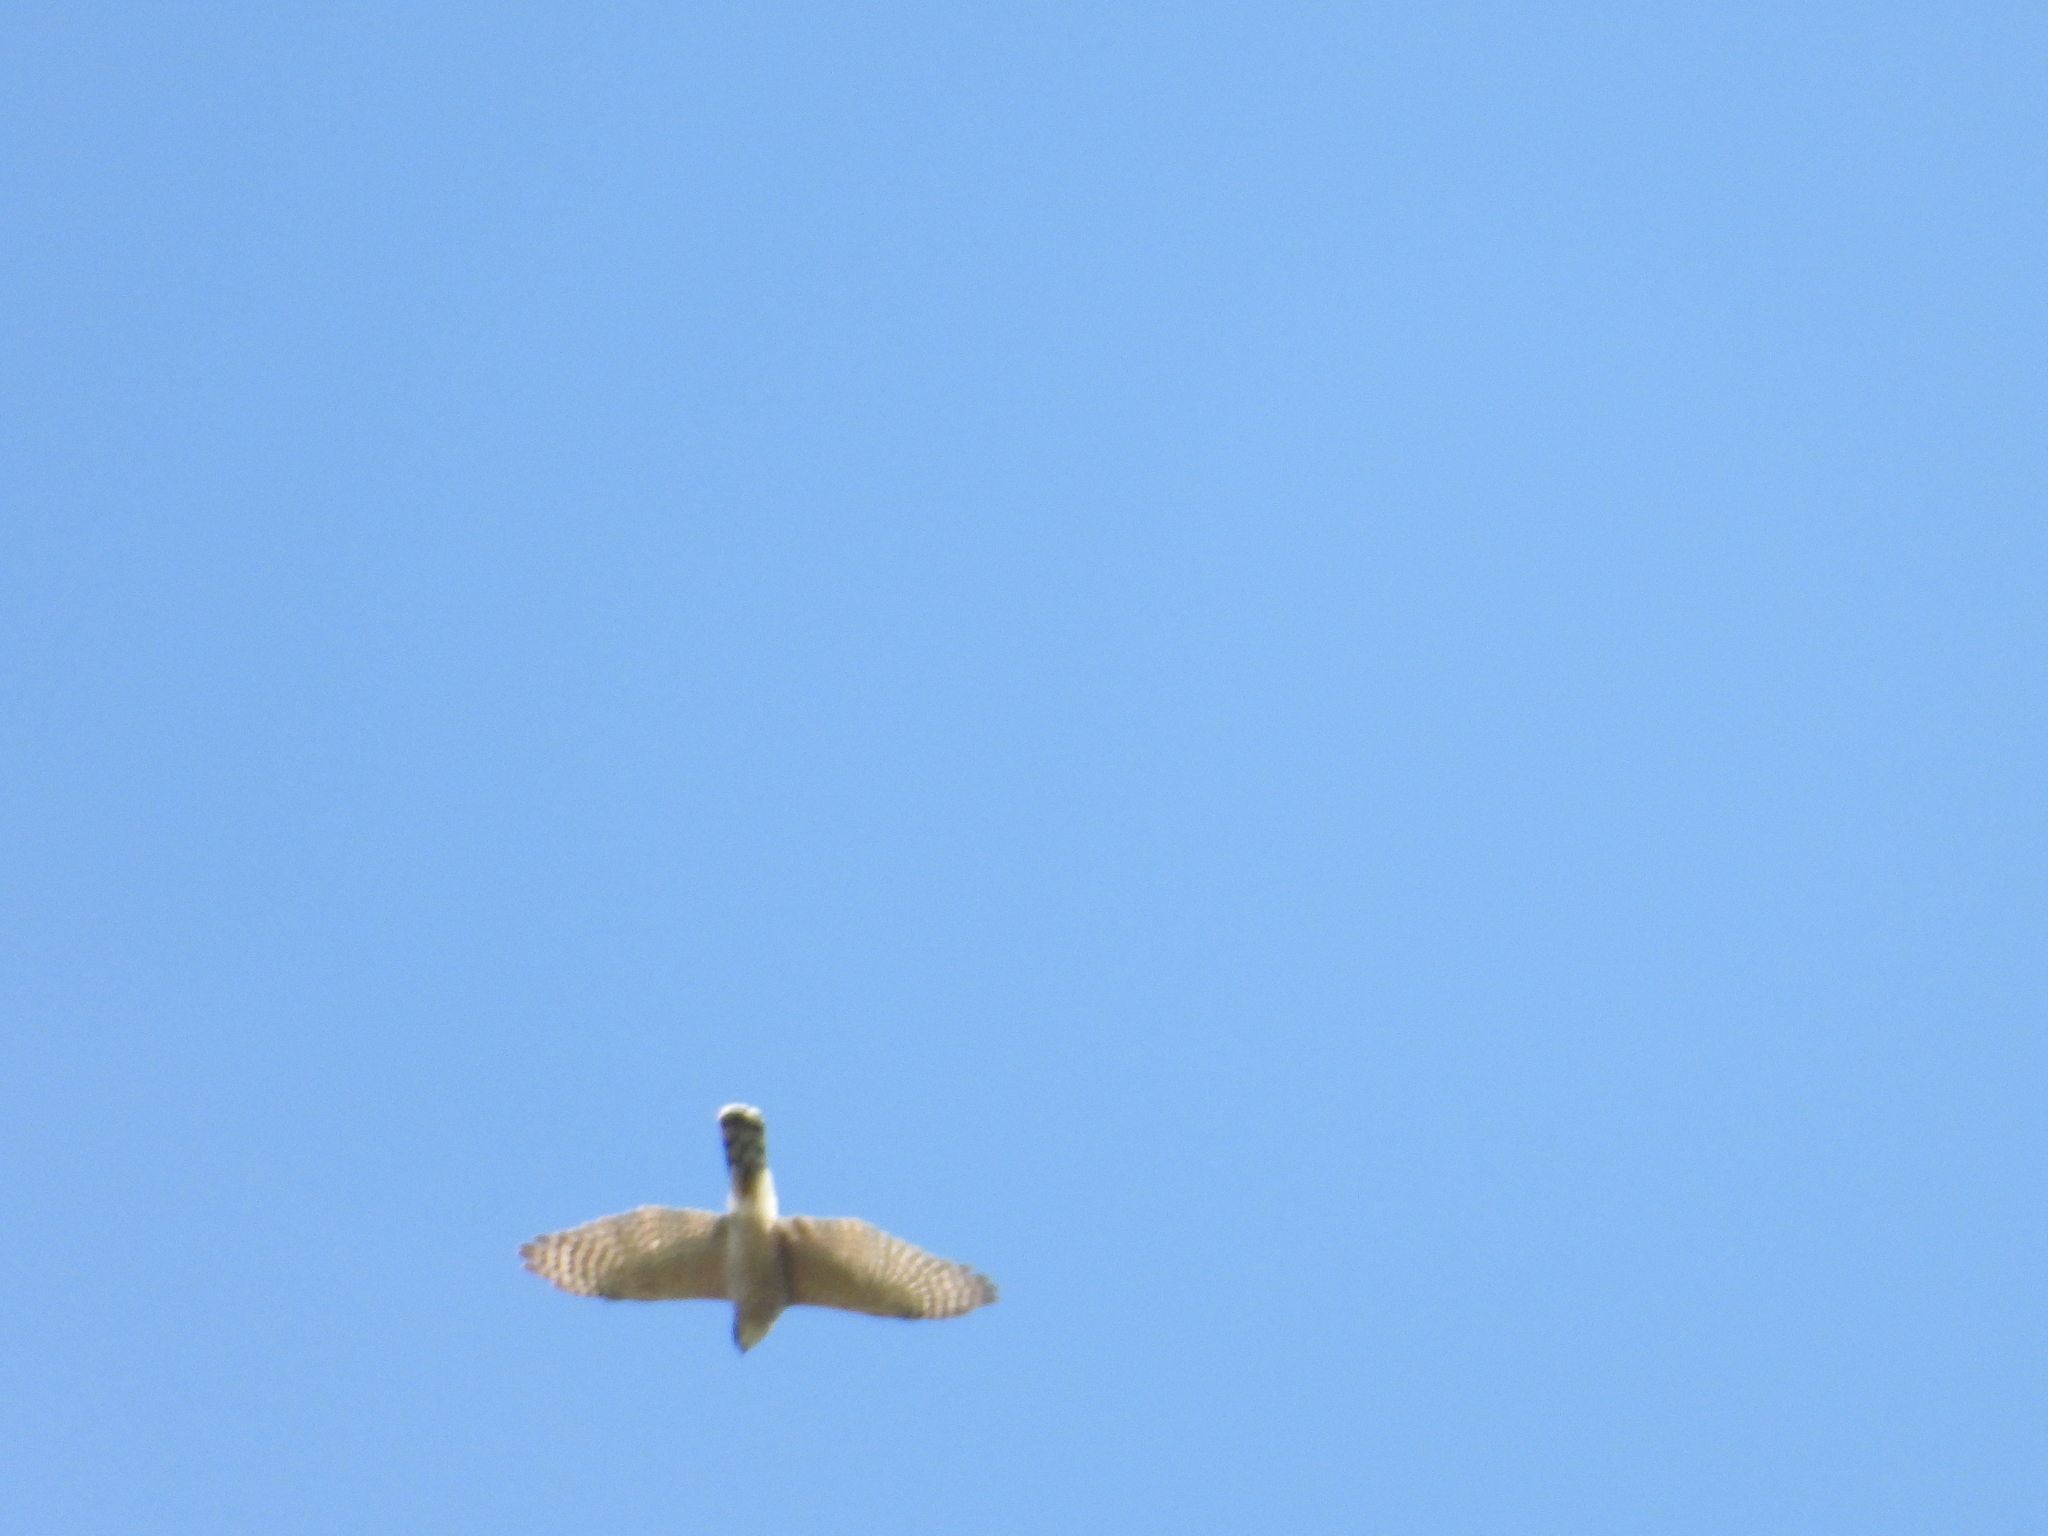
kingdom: Animalia
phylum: Chordata
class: Aves
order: Accipitriformes
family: Accipitridae
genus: Accipiter
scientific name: Accipiter cooperii
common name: Cooper's hawk
